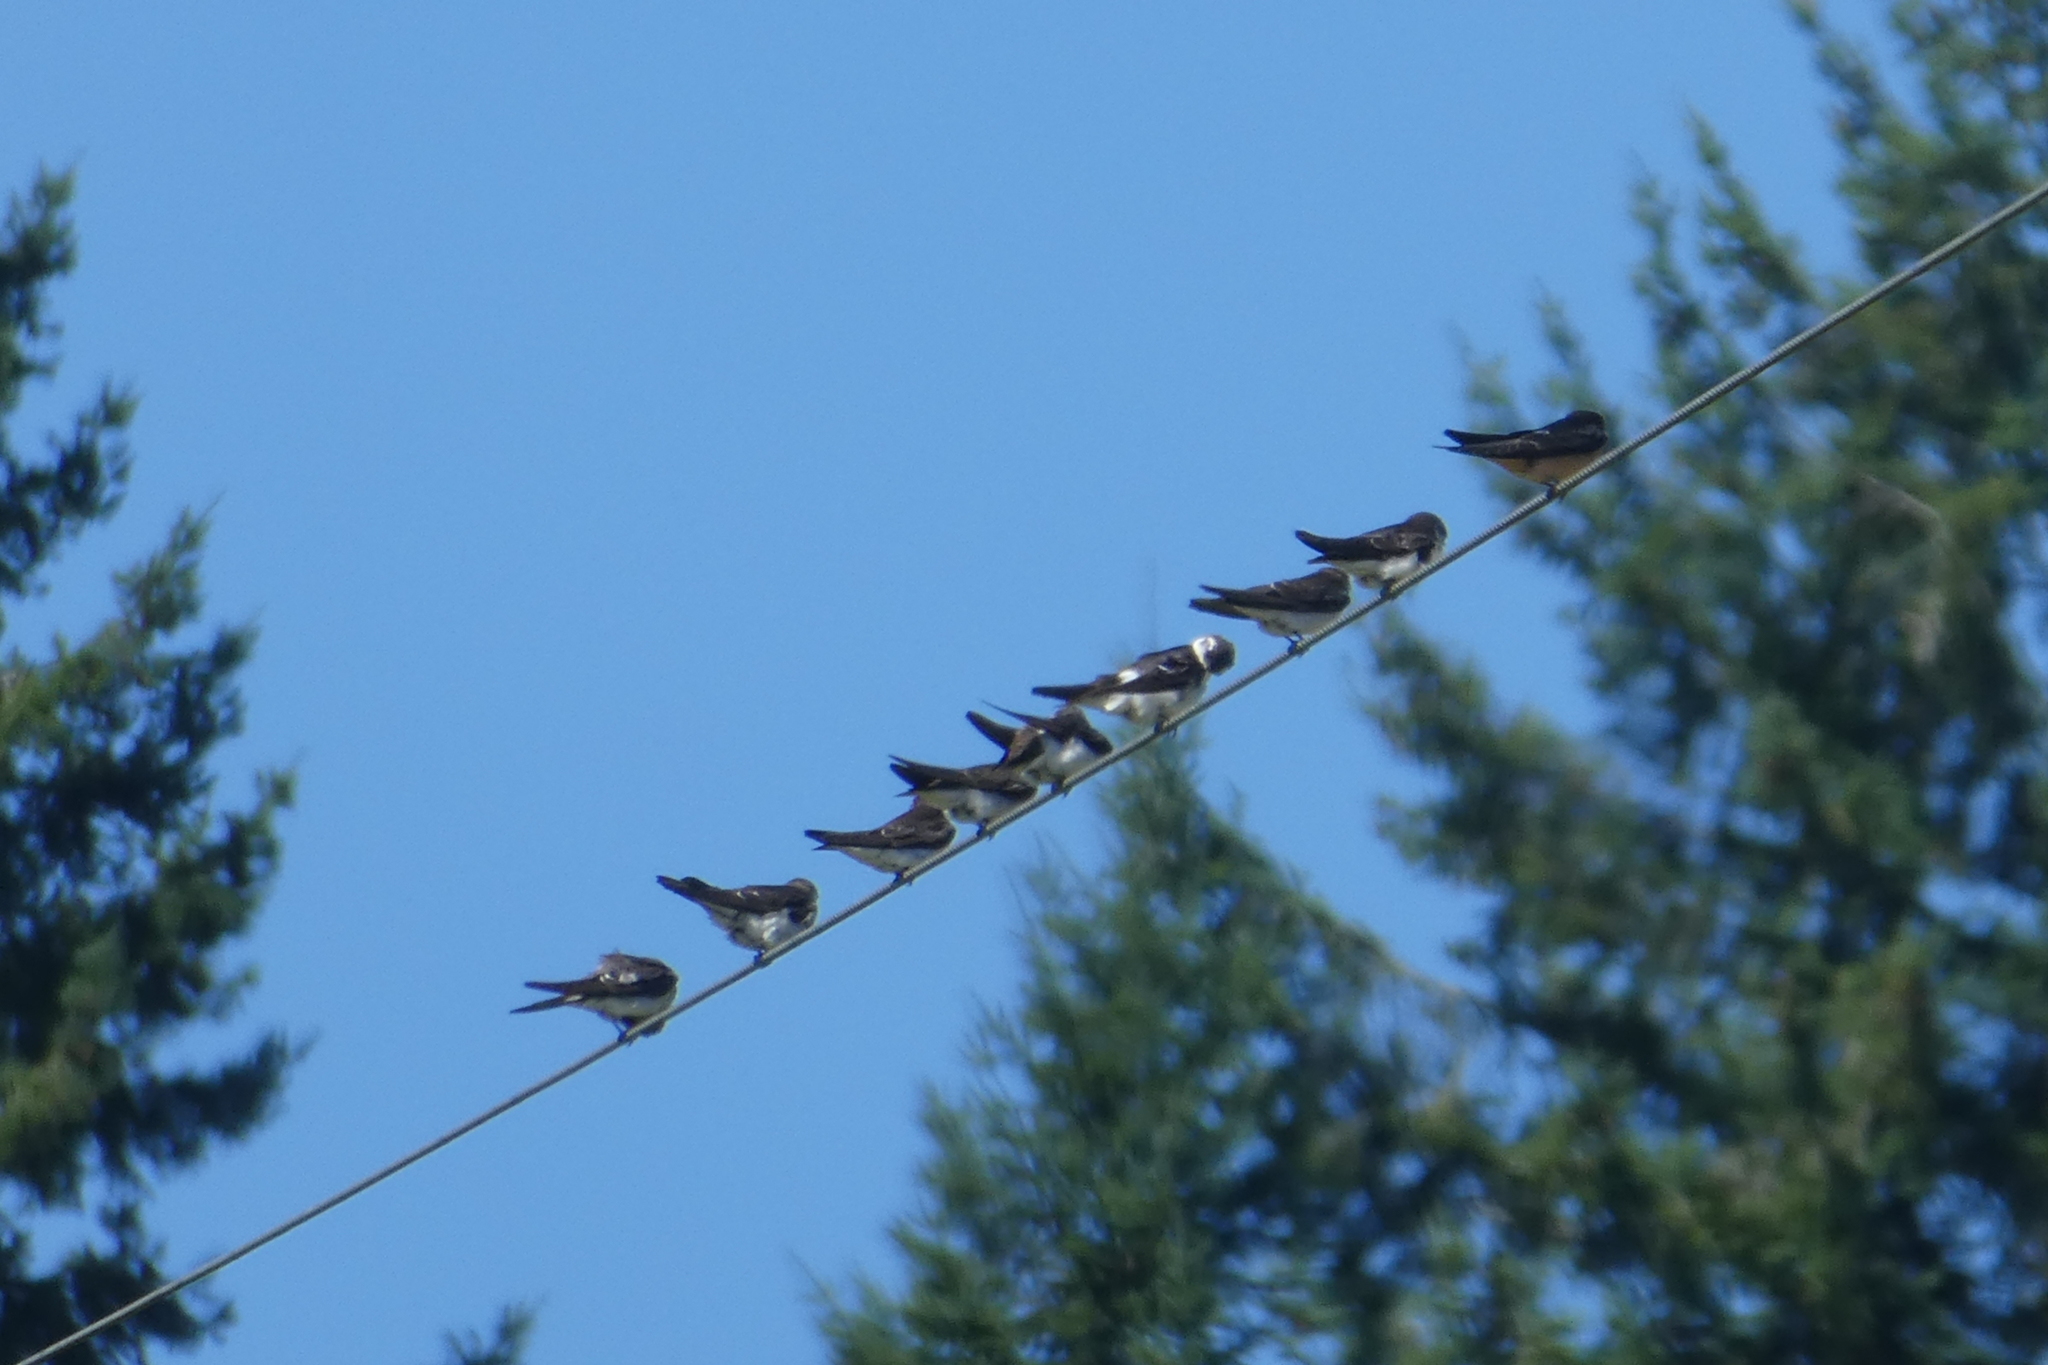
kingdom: Animalia
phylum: Chordata
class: Aves
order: Passeriformes
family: Hirundinidae
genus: Tachycineta
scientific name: Tachycineta thalassina
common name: Violet-green swallow
